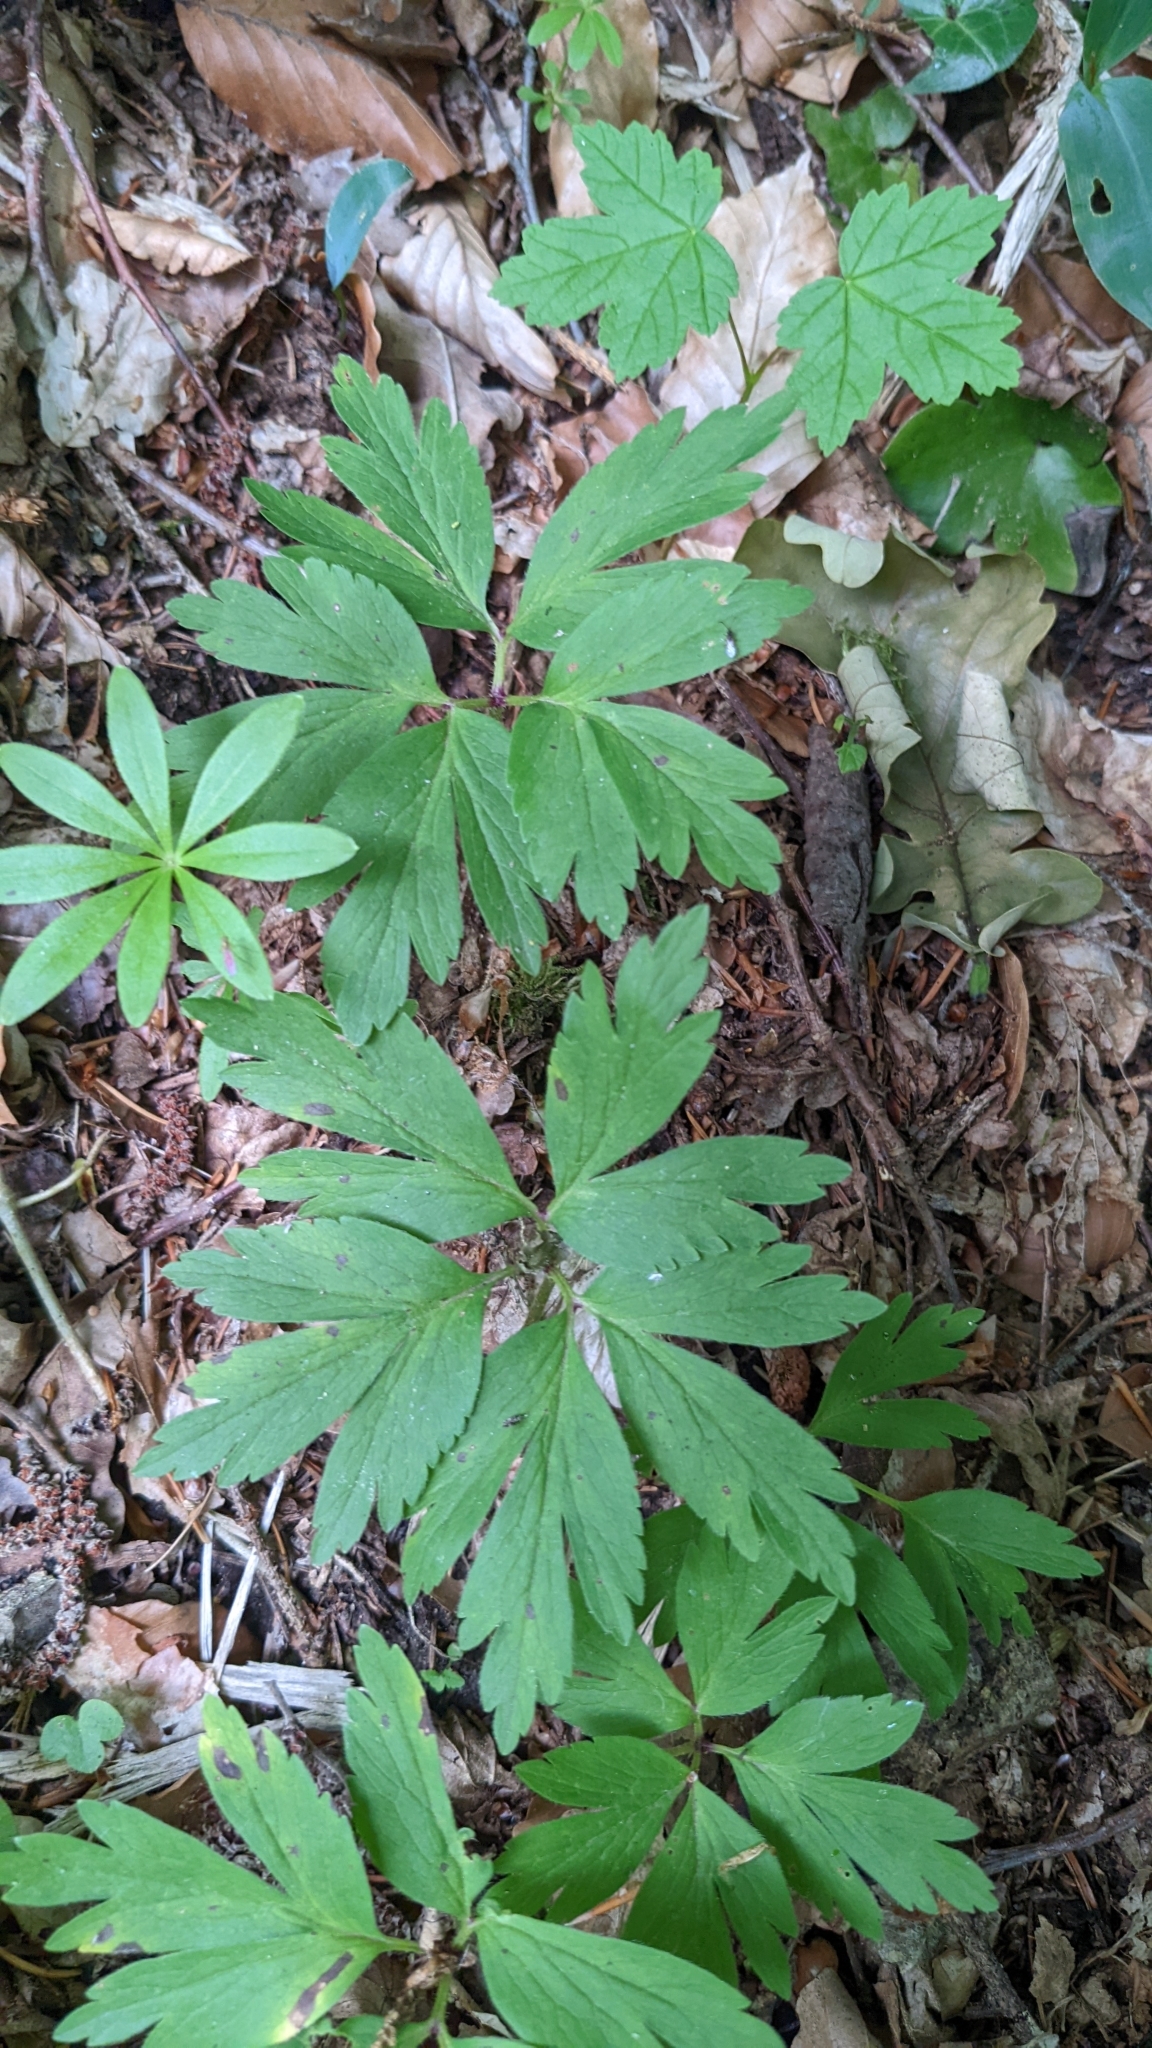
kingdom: Plantae
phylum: Tracheophyta
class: Magnoliopsida
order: Ranunculales
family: Ranunculaceae
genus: Anemone
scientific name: Anemone nemorosa
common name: Wood anemone
